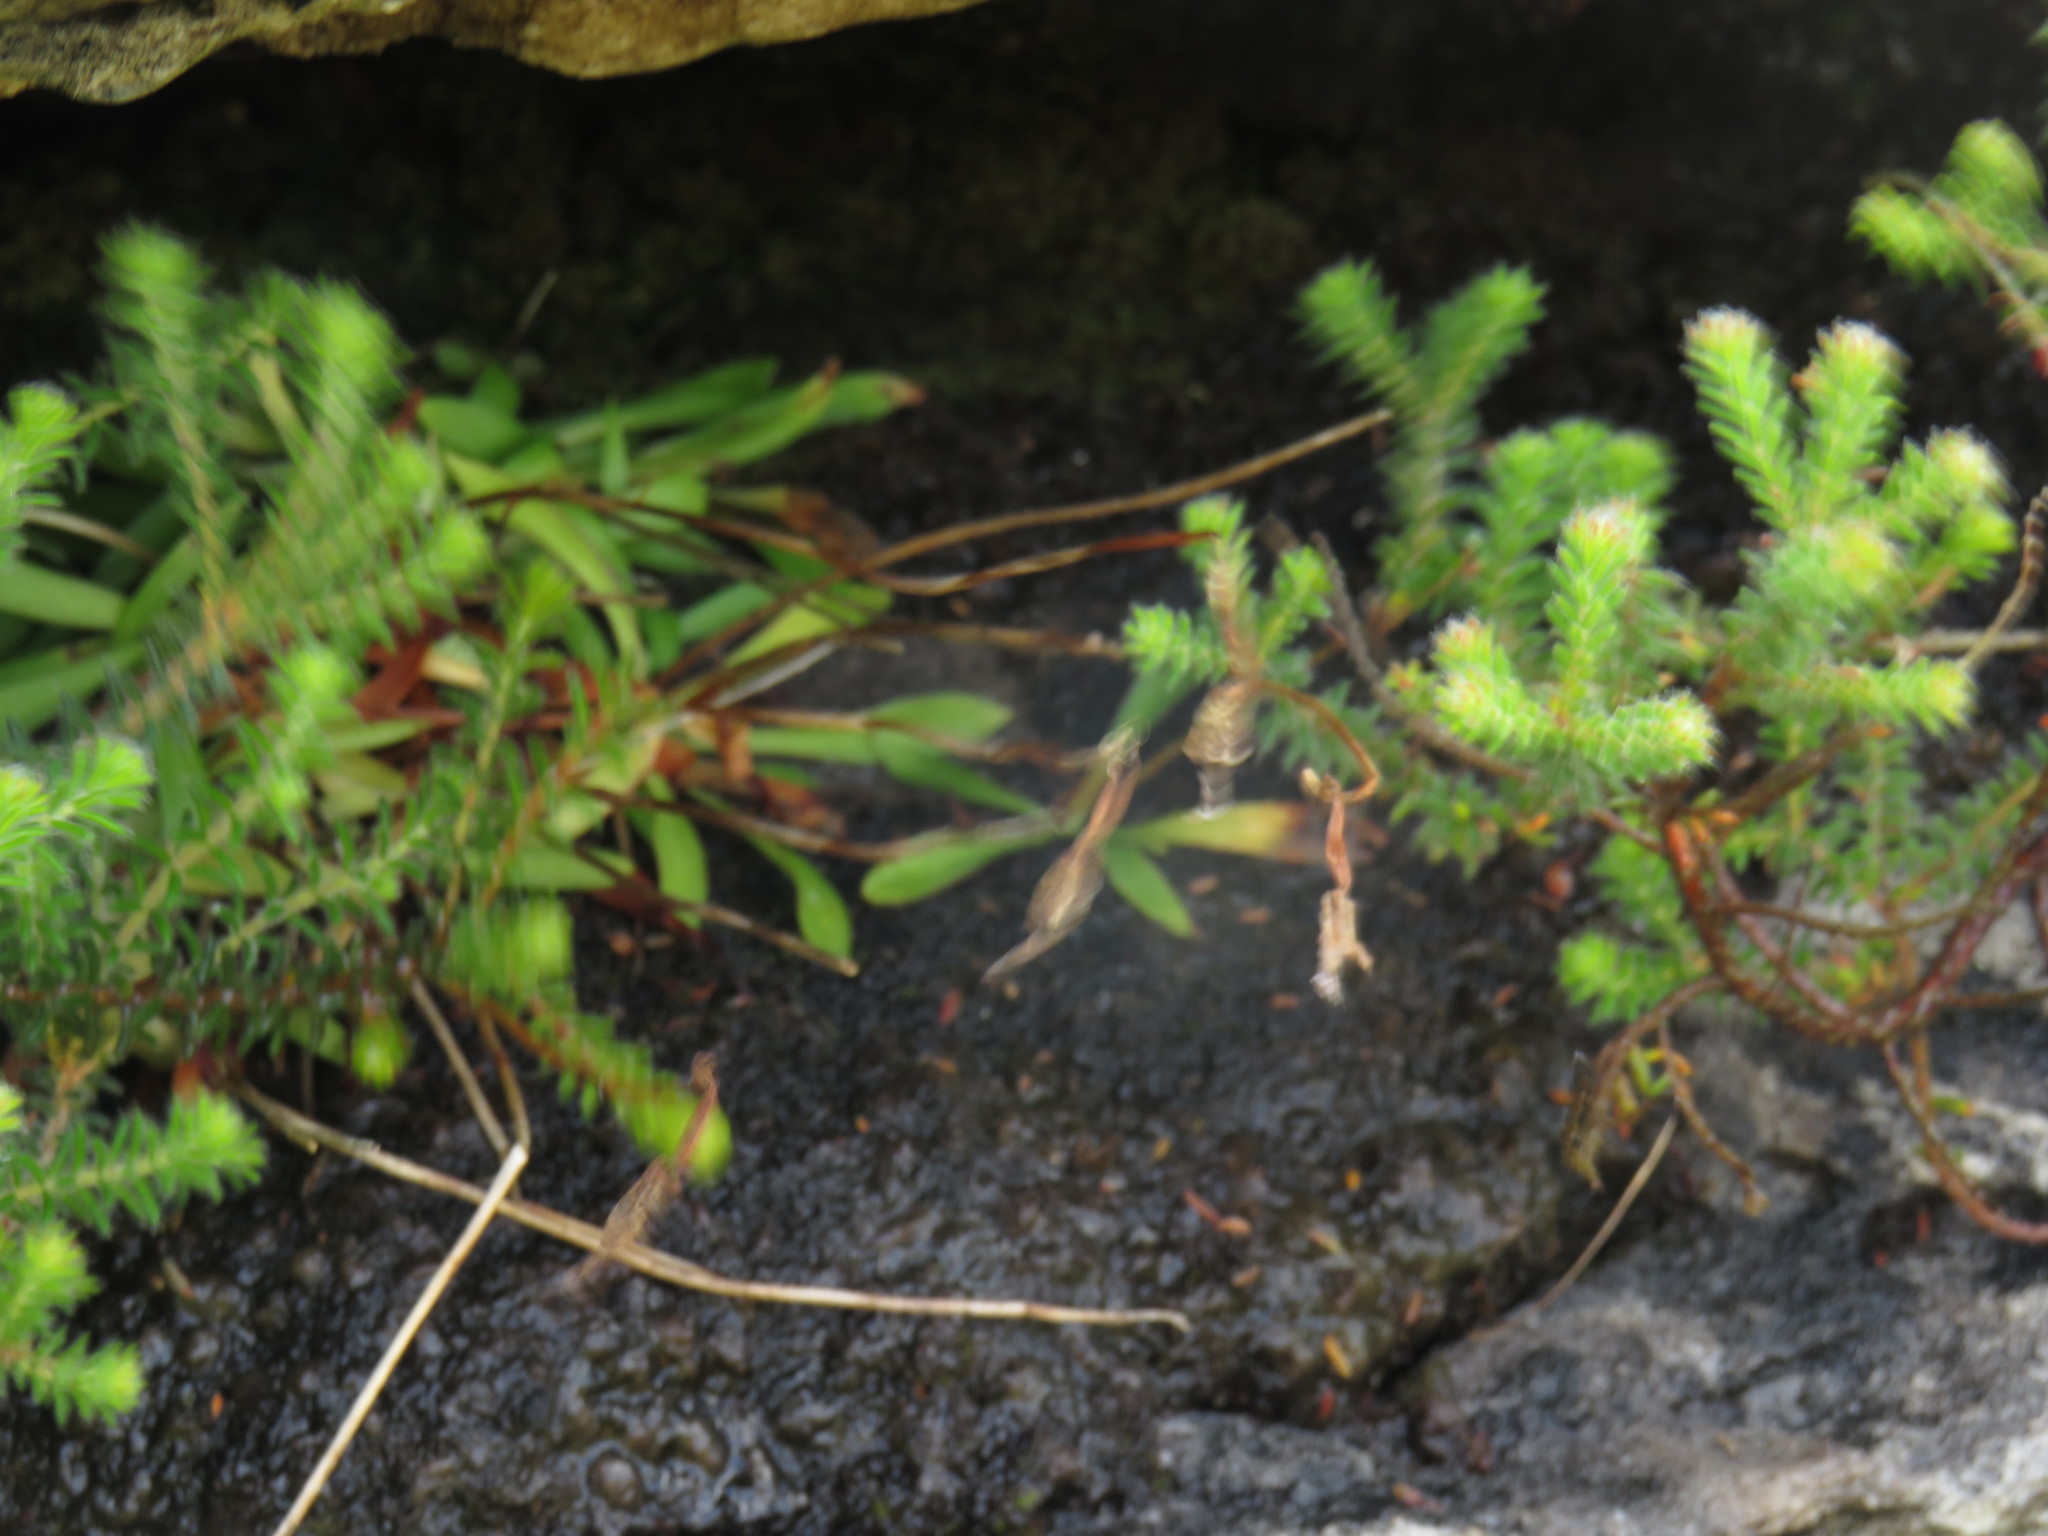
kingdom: Plantae
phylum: Tracheophyta
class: Liliopsida
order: Asparagales
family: Orchidaceae
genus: Disa
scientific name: Disa maculata
